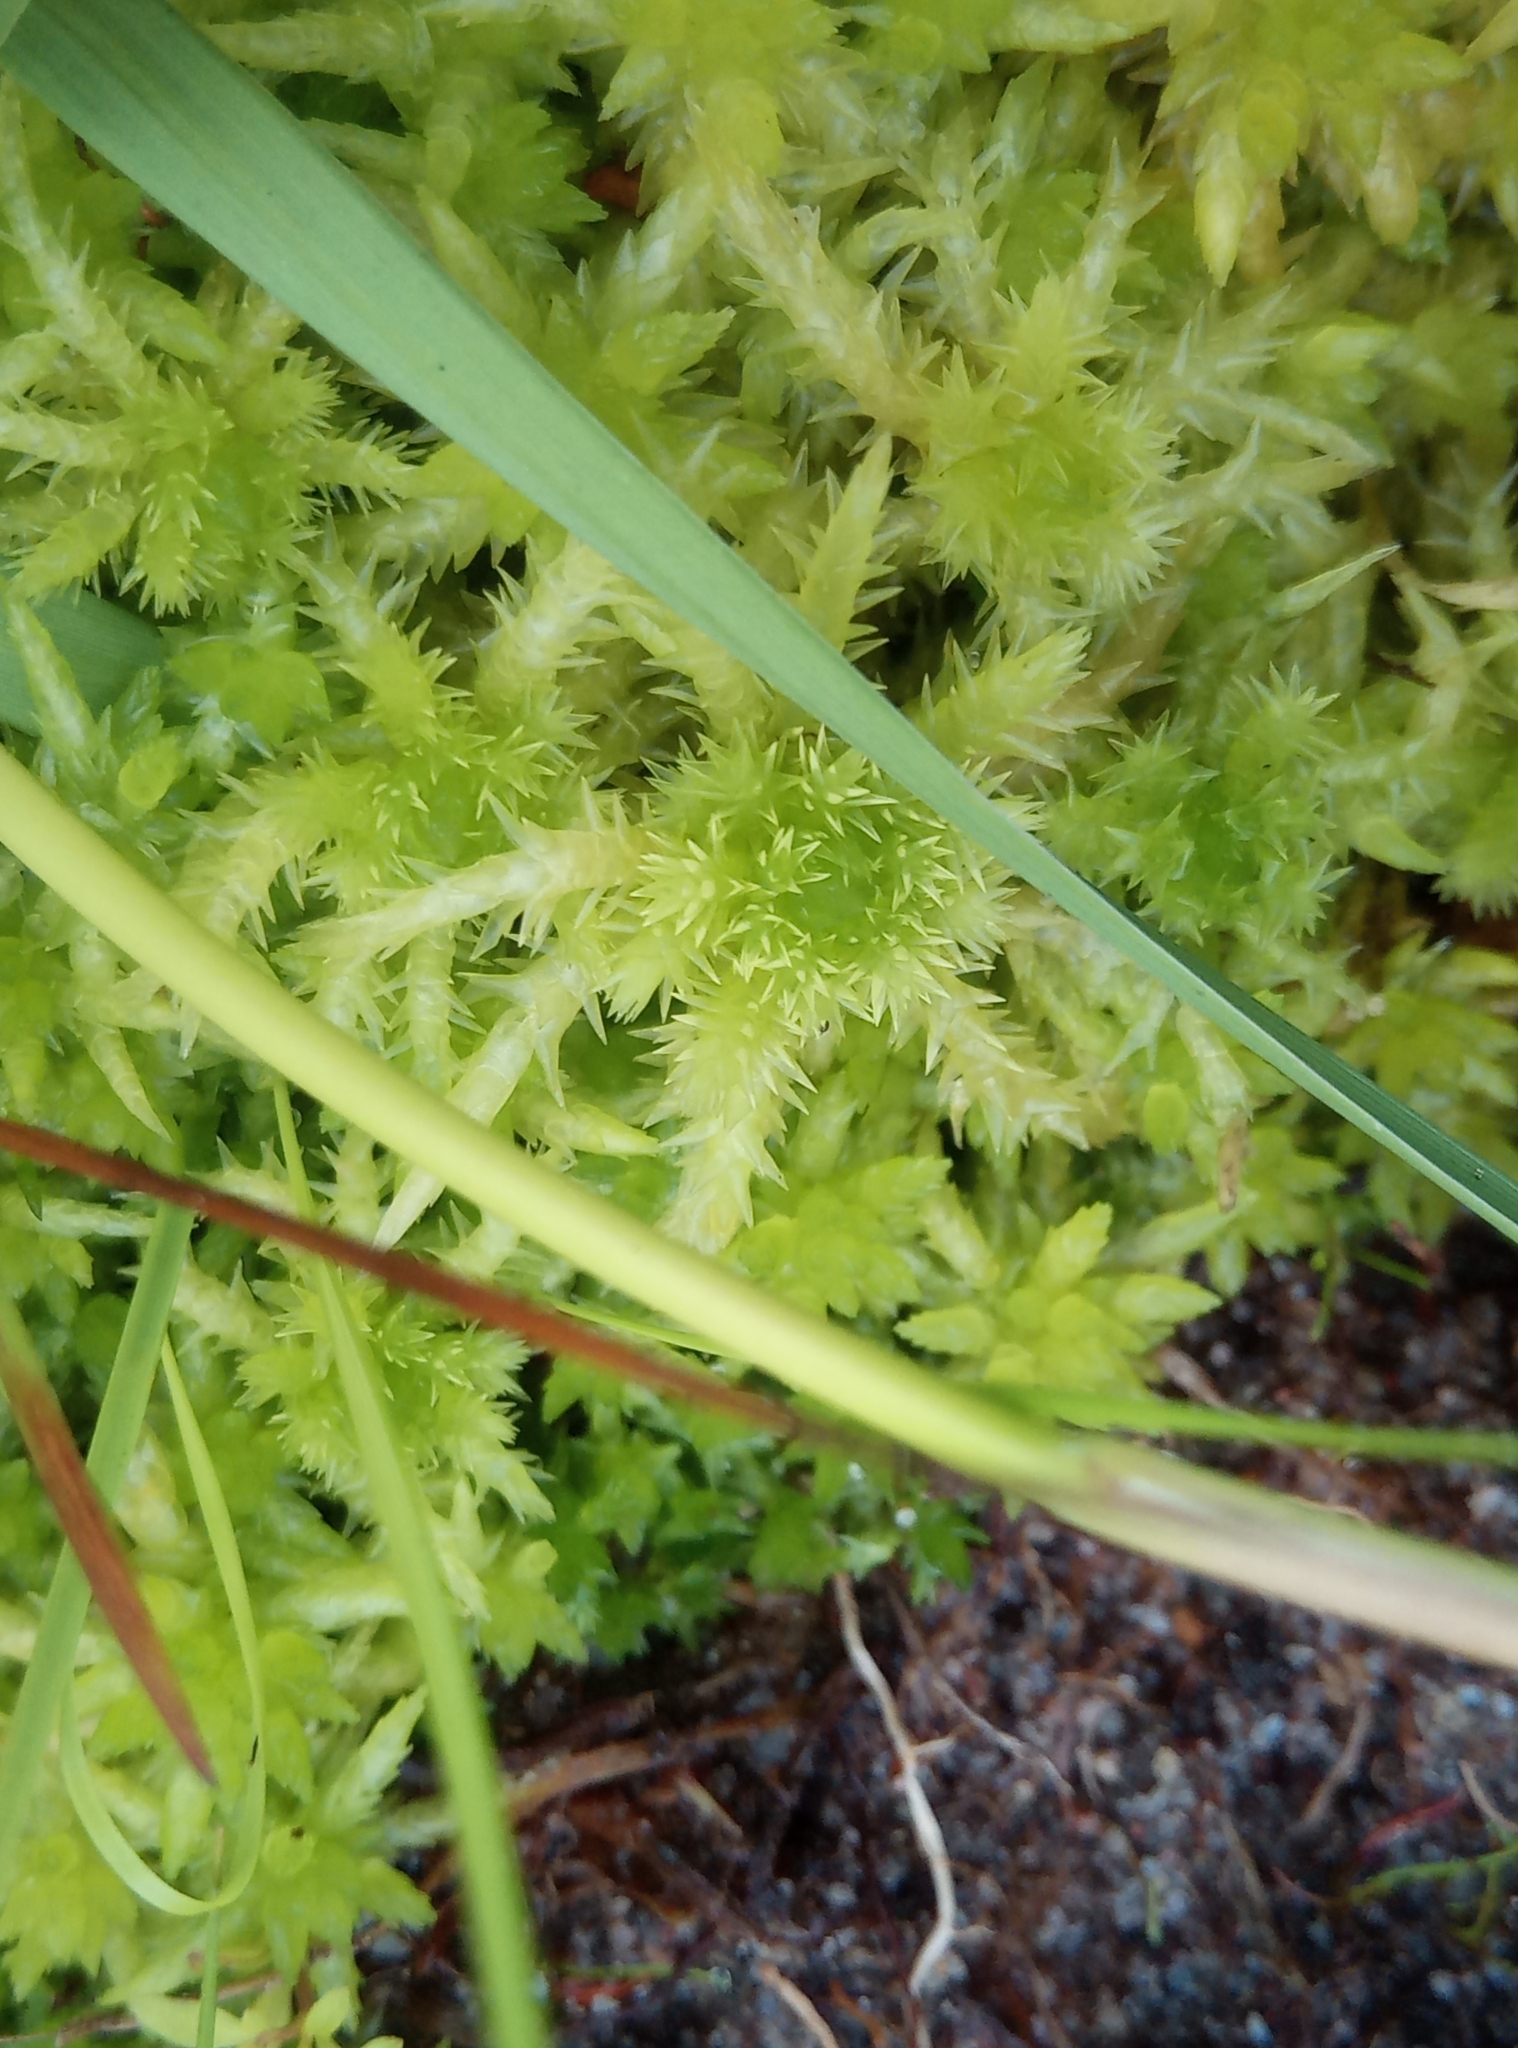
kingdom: Plantae
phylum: Bryophyta
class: Sphagnopsida
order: Sphagnales
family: Sphagnaceae
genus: Sphagnum
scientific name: Sphagnum squarrosum
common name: Shaggy peat moss
